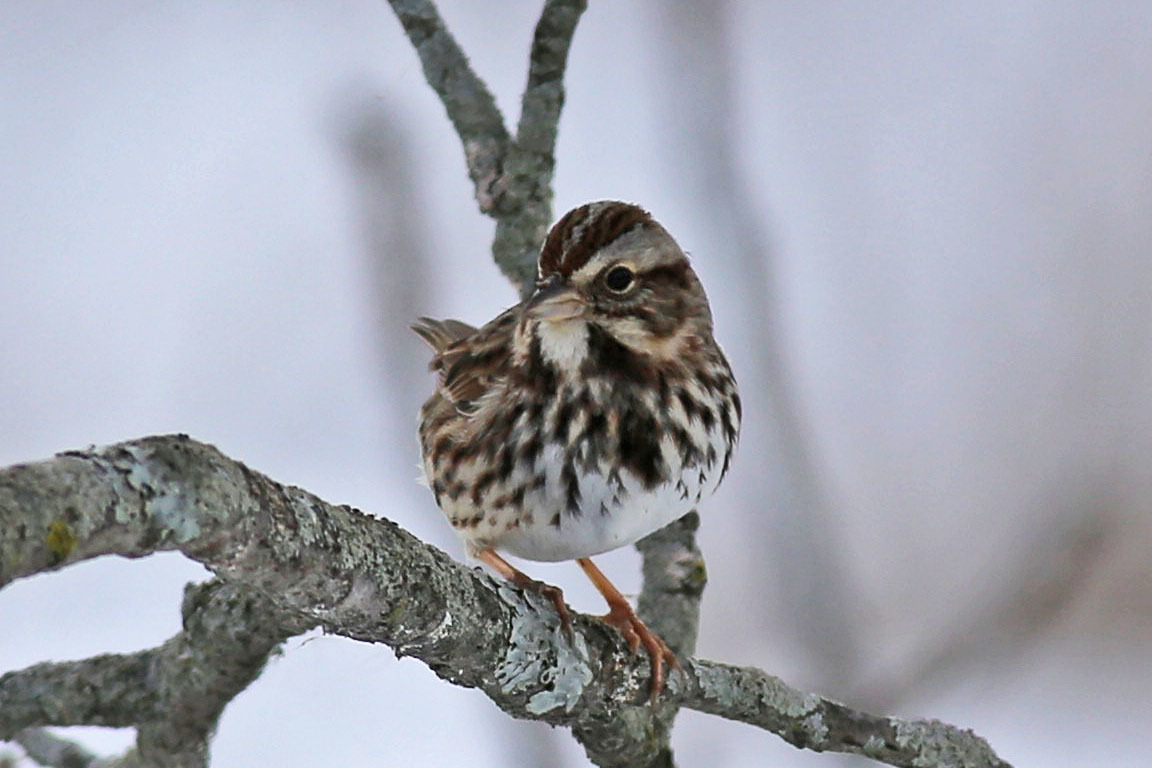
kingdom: Animalia
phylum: Chordata
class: Aves
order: Passeriformes
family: Passerellidae
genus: Melospiza
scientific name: Melospiza melodia
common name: Song sparrow
